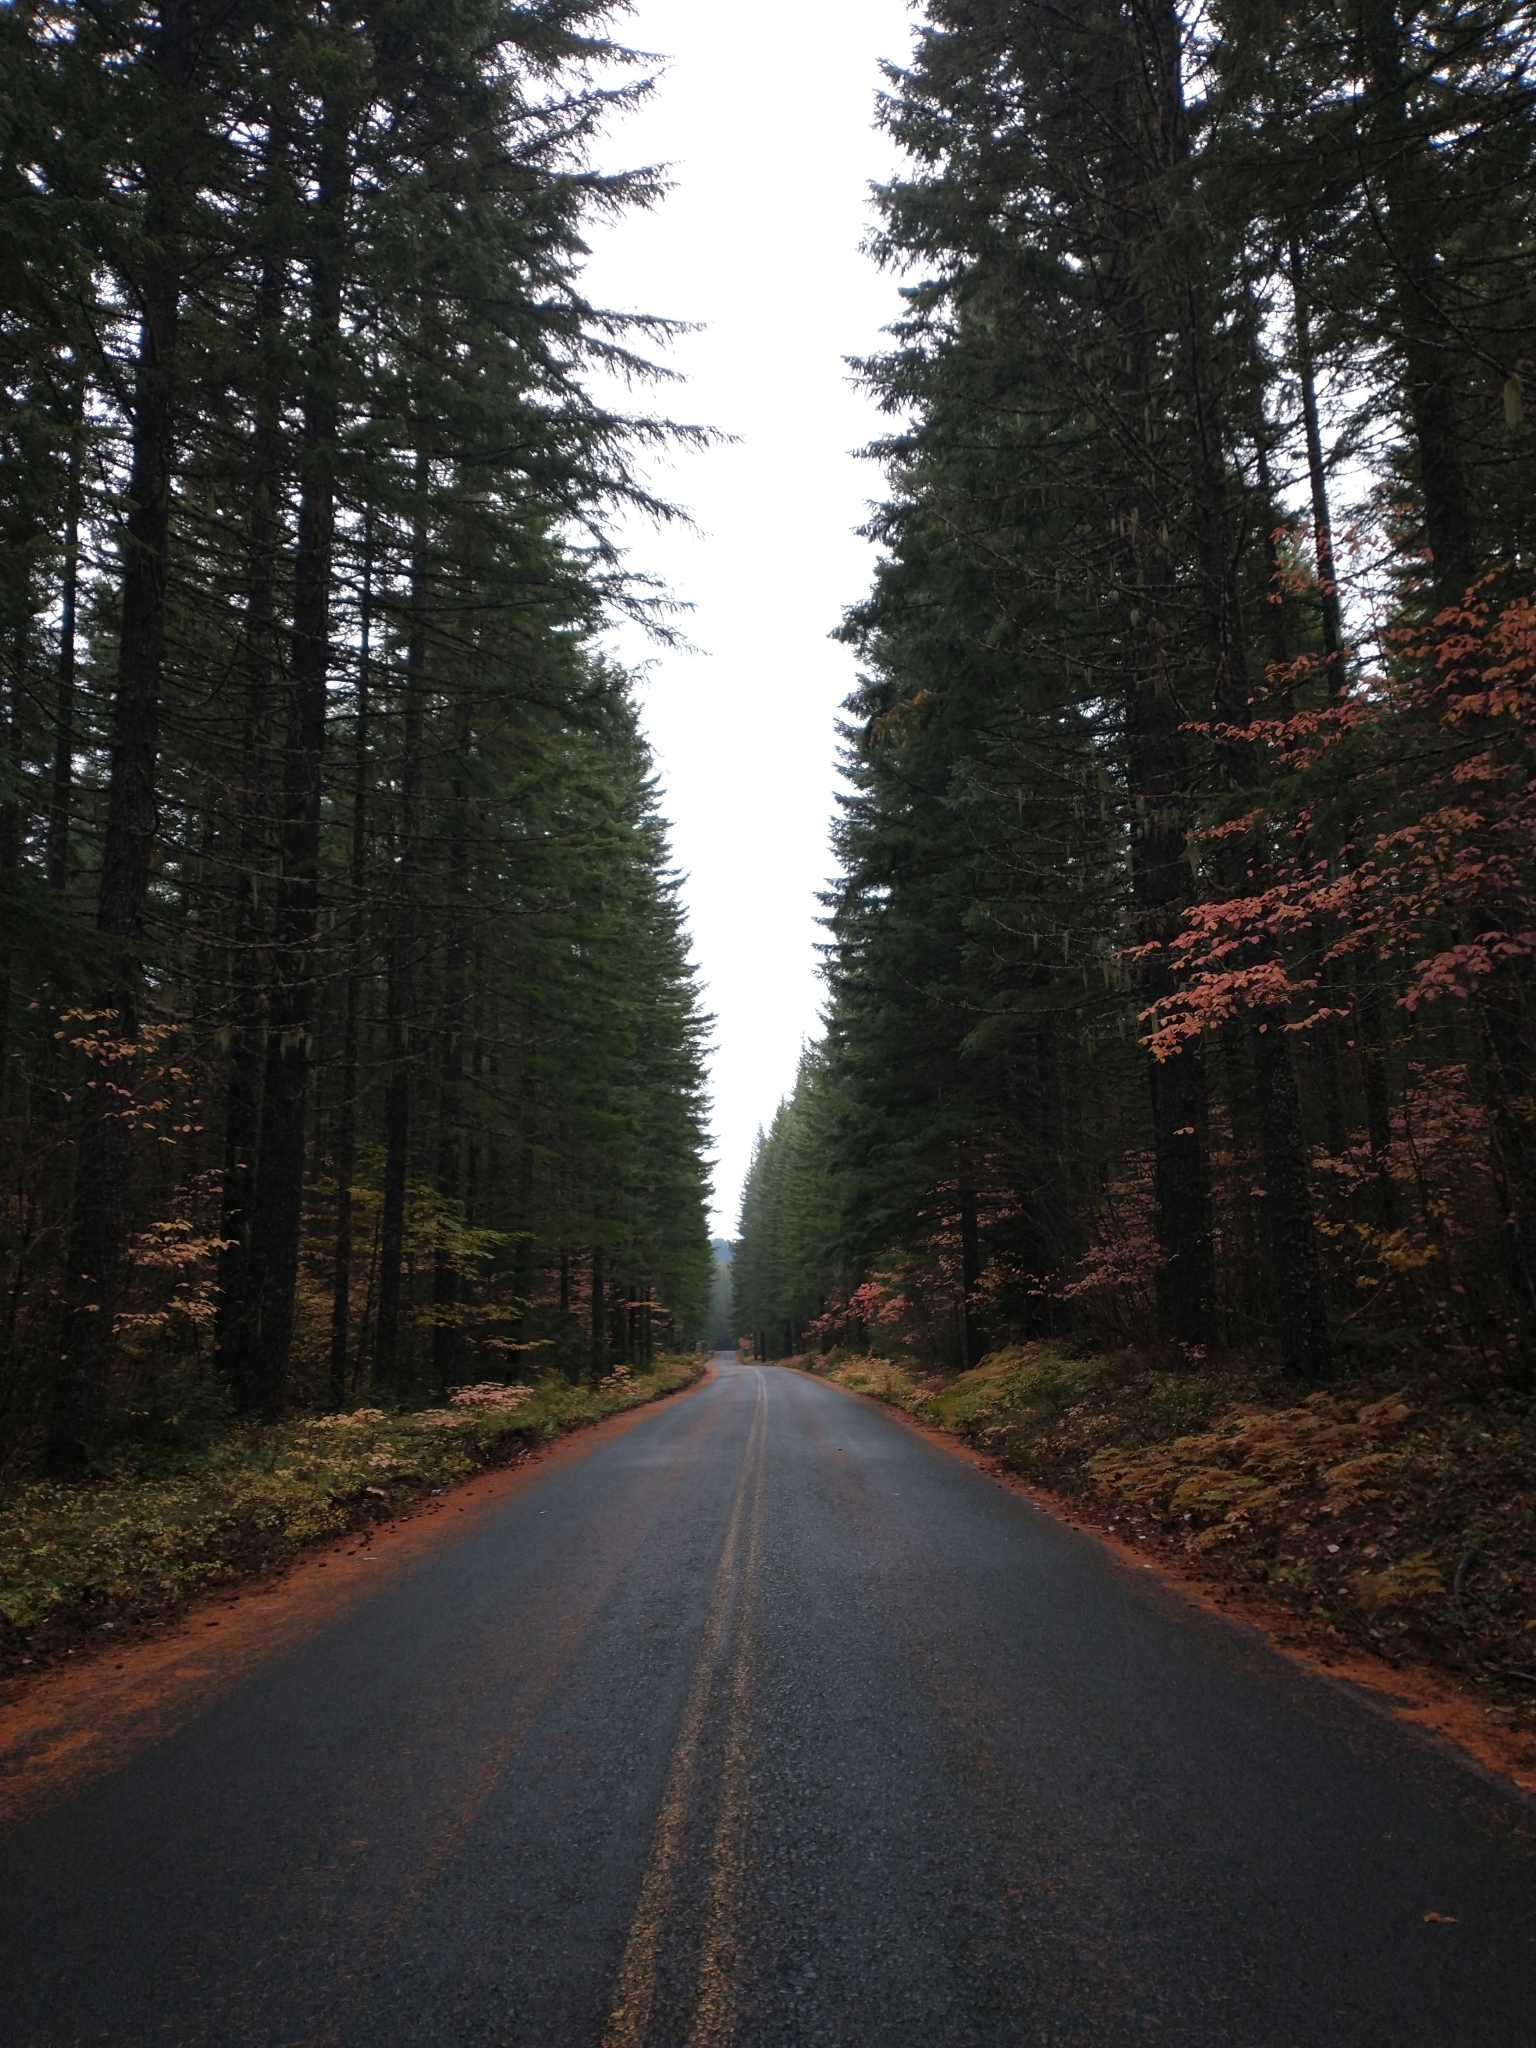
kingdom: Plantae
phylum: Tracheophyta
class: Pinopsida
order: Pinales
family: Pinaceae
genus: Pseudotsuga
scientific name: Pseudotsuga menziesii
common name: Douglas fir
